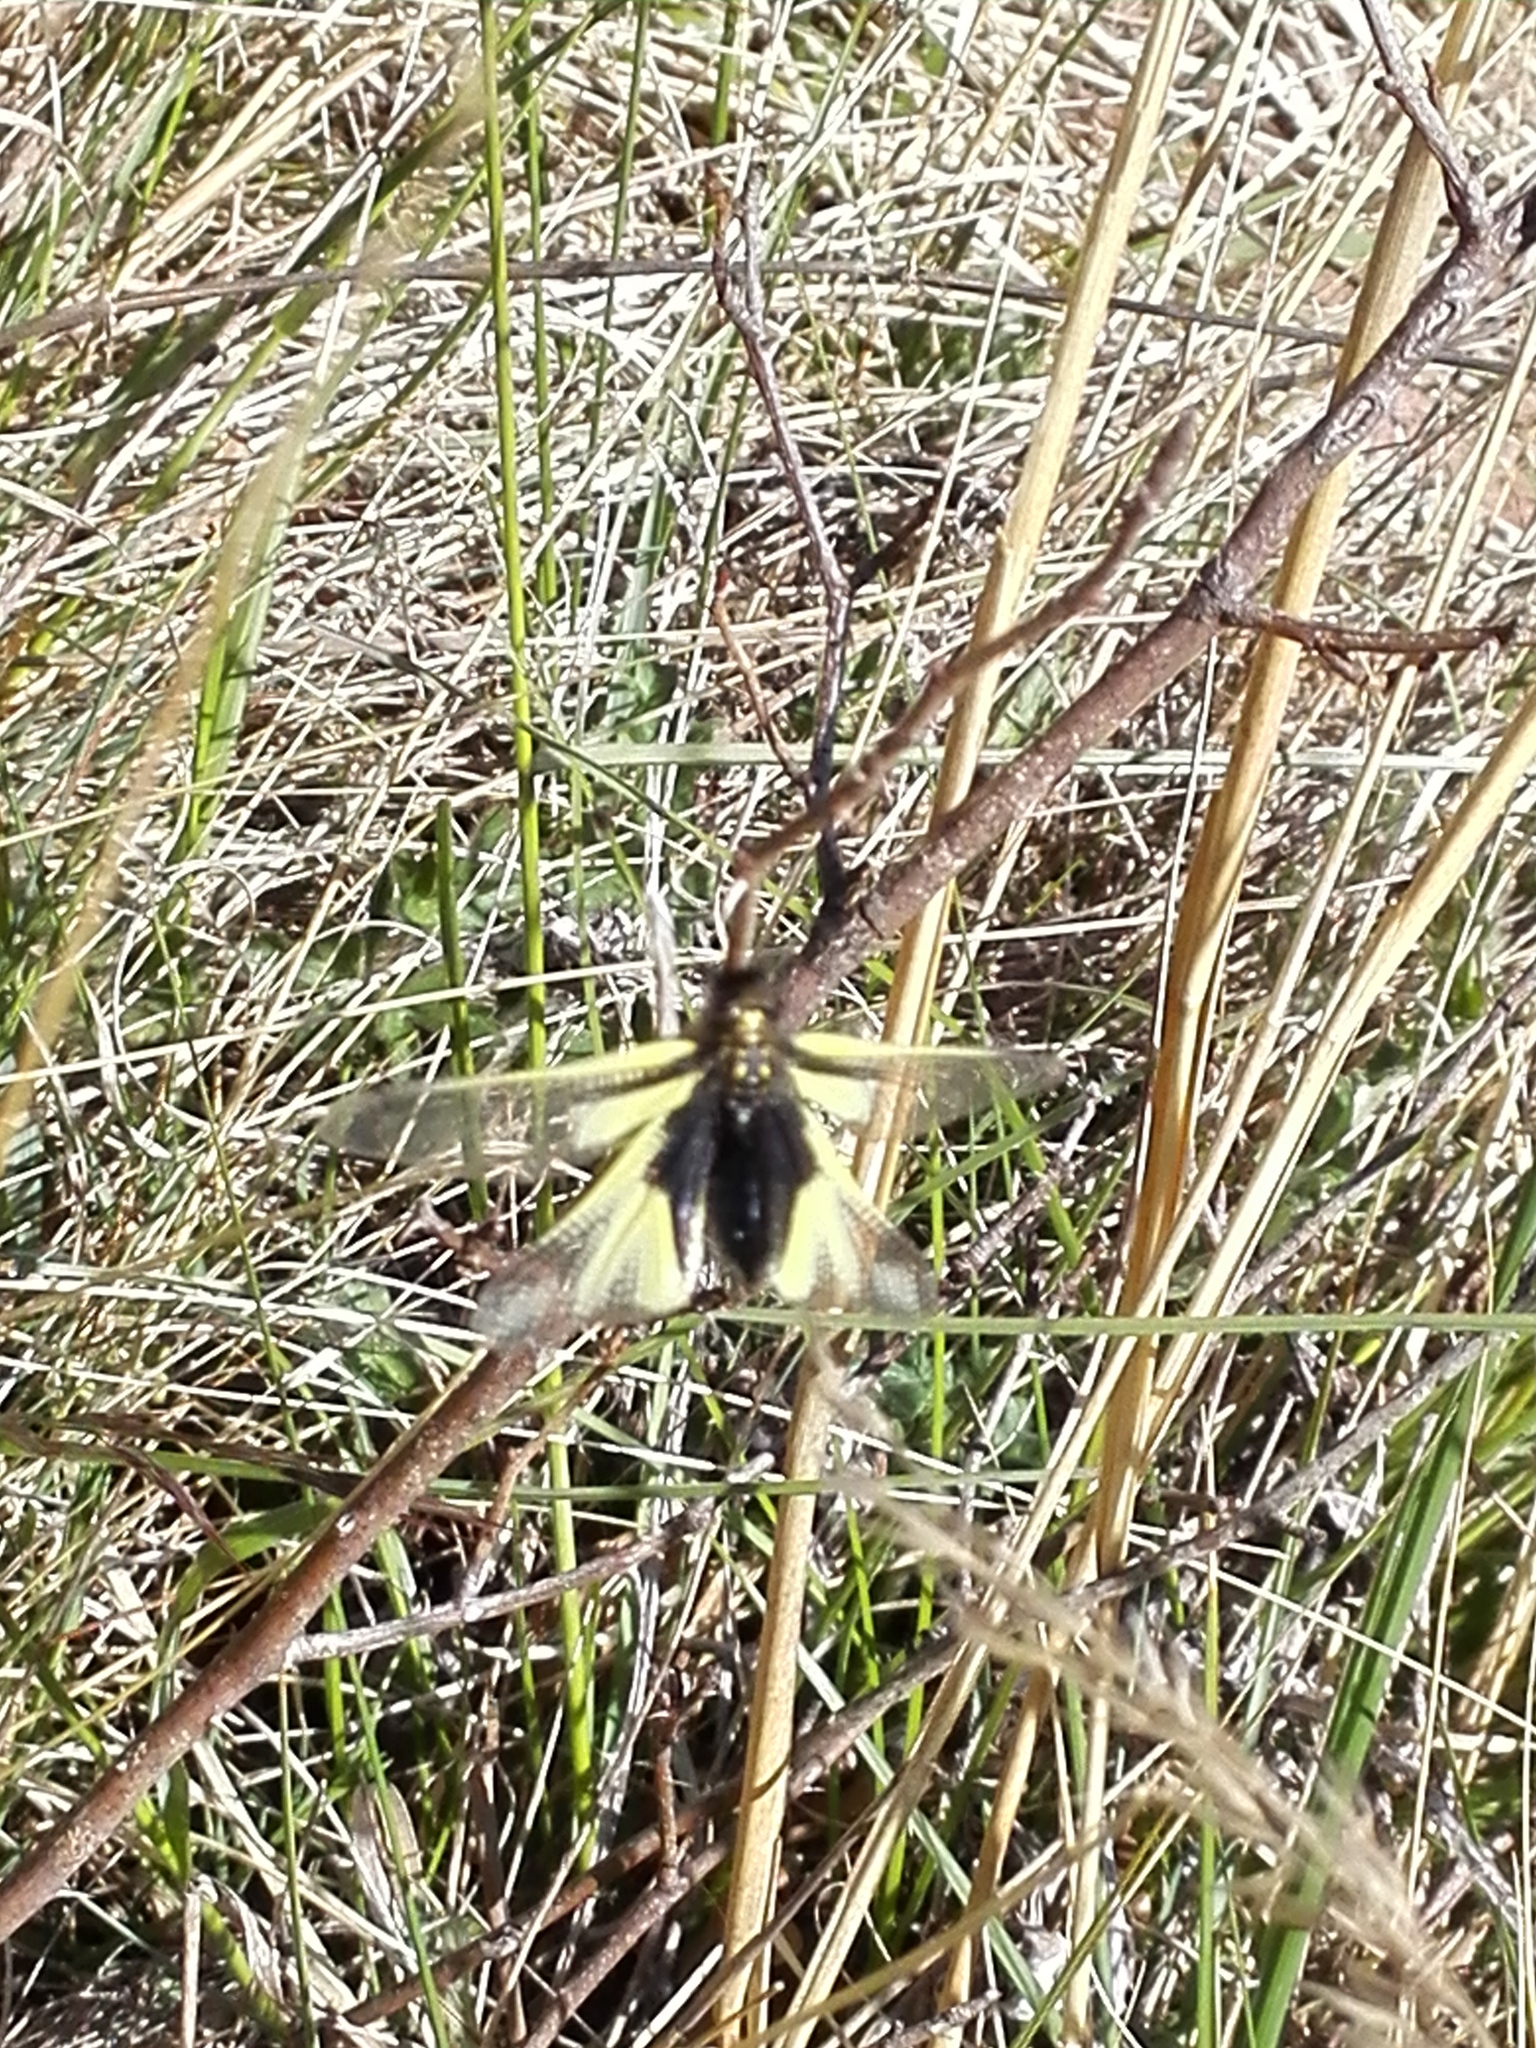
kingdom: Animalia
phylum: Arthropoda
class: Insecta
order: Neuroptera
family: Ascalaphidae
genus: Libelloides
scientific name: Libelloides coccajus
